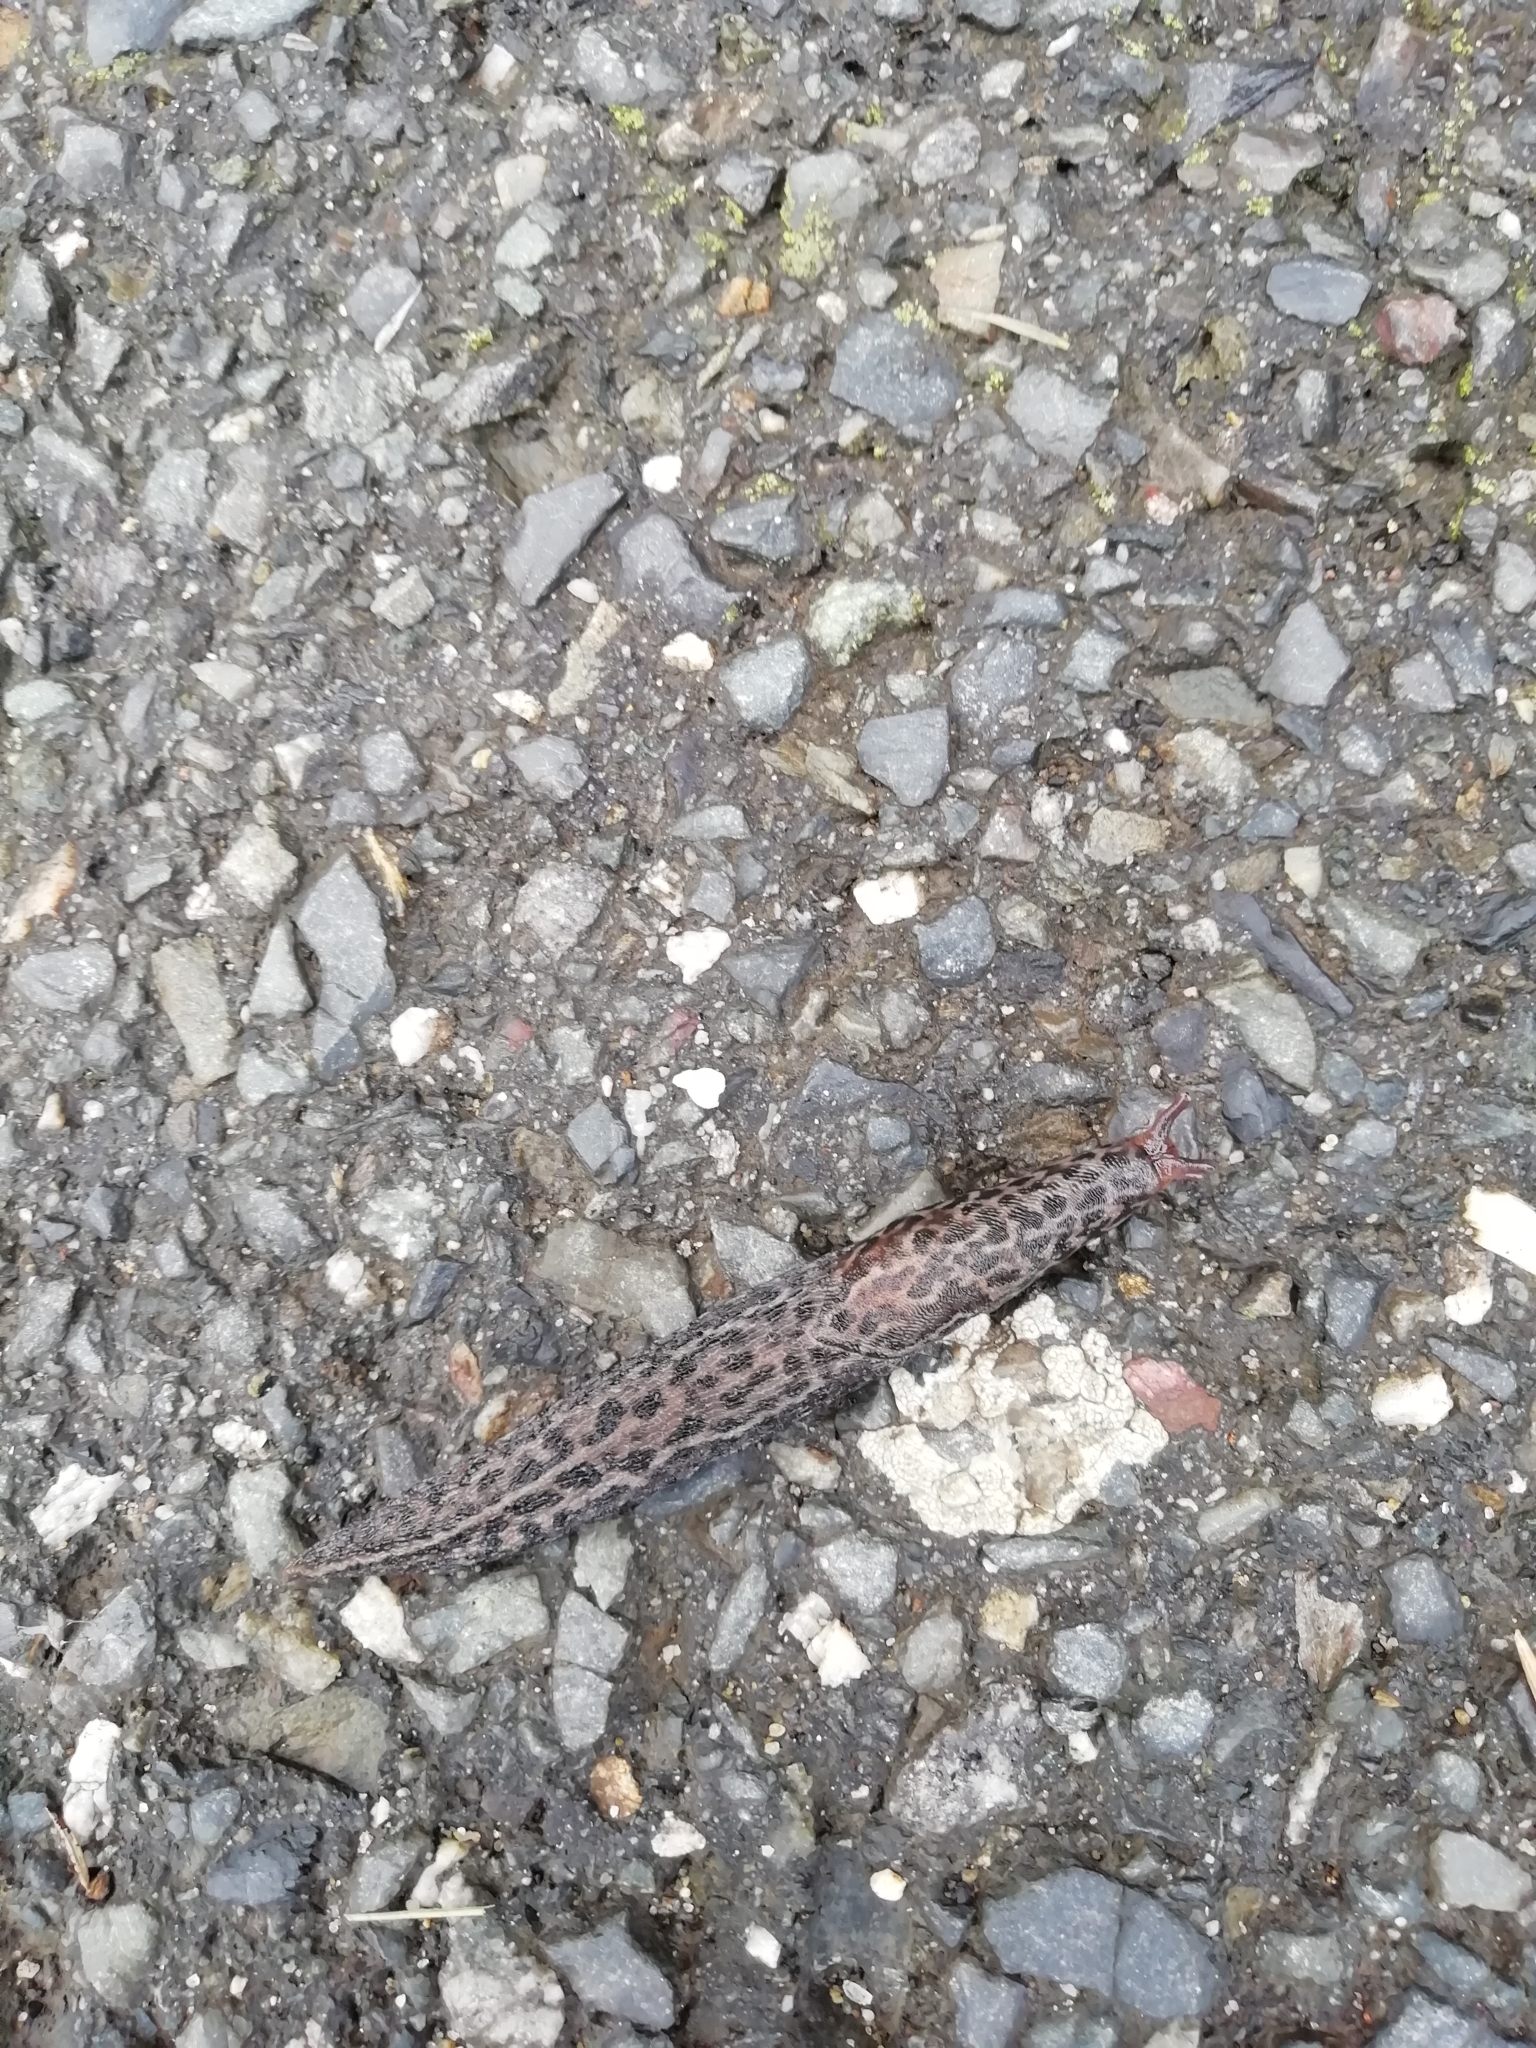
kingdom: Animalia
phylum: Mollusca
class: Gastropoda
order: Stylommatophora
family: Limacidae
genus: Limax
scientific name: Limax maximus
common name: Great grey slug
